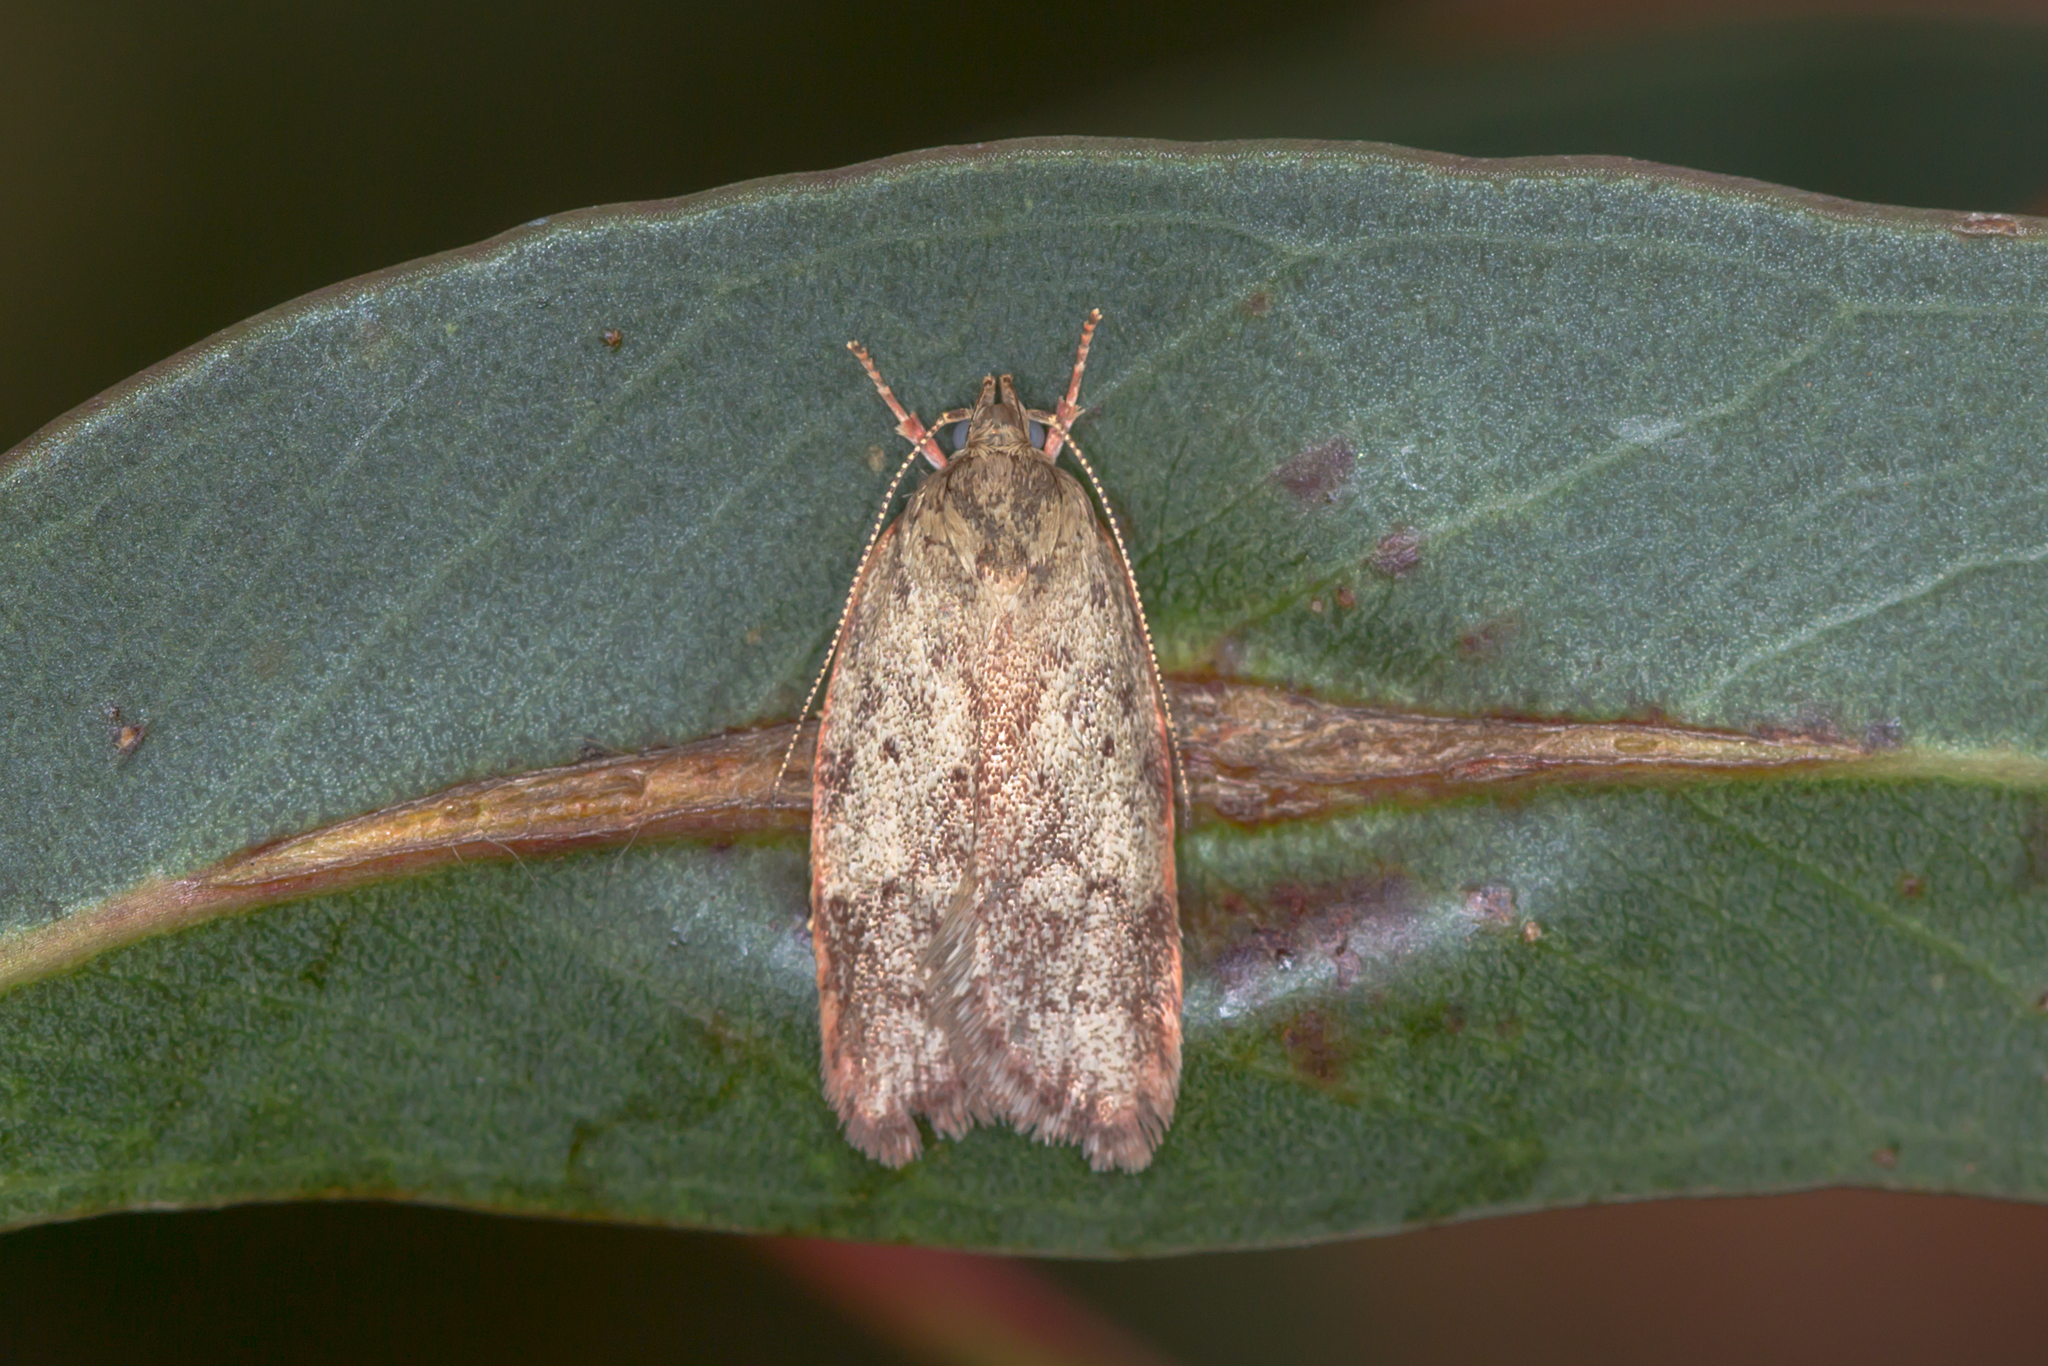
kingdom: Animalia
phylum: Arthropoda
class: Insecta
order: Lepidoptera
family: Oecophoridae
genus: Oligoloba
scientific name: Oligoloba severa
